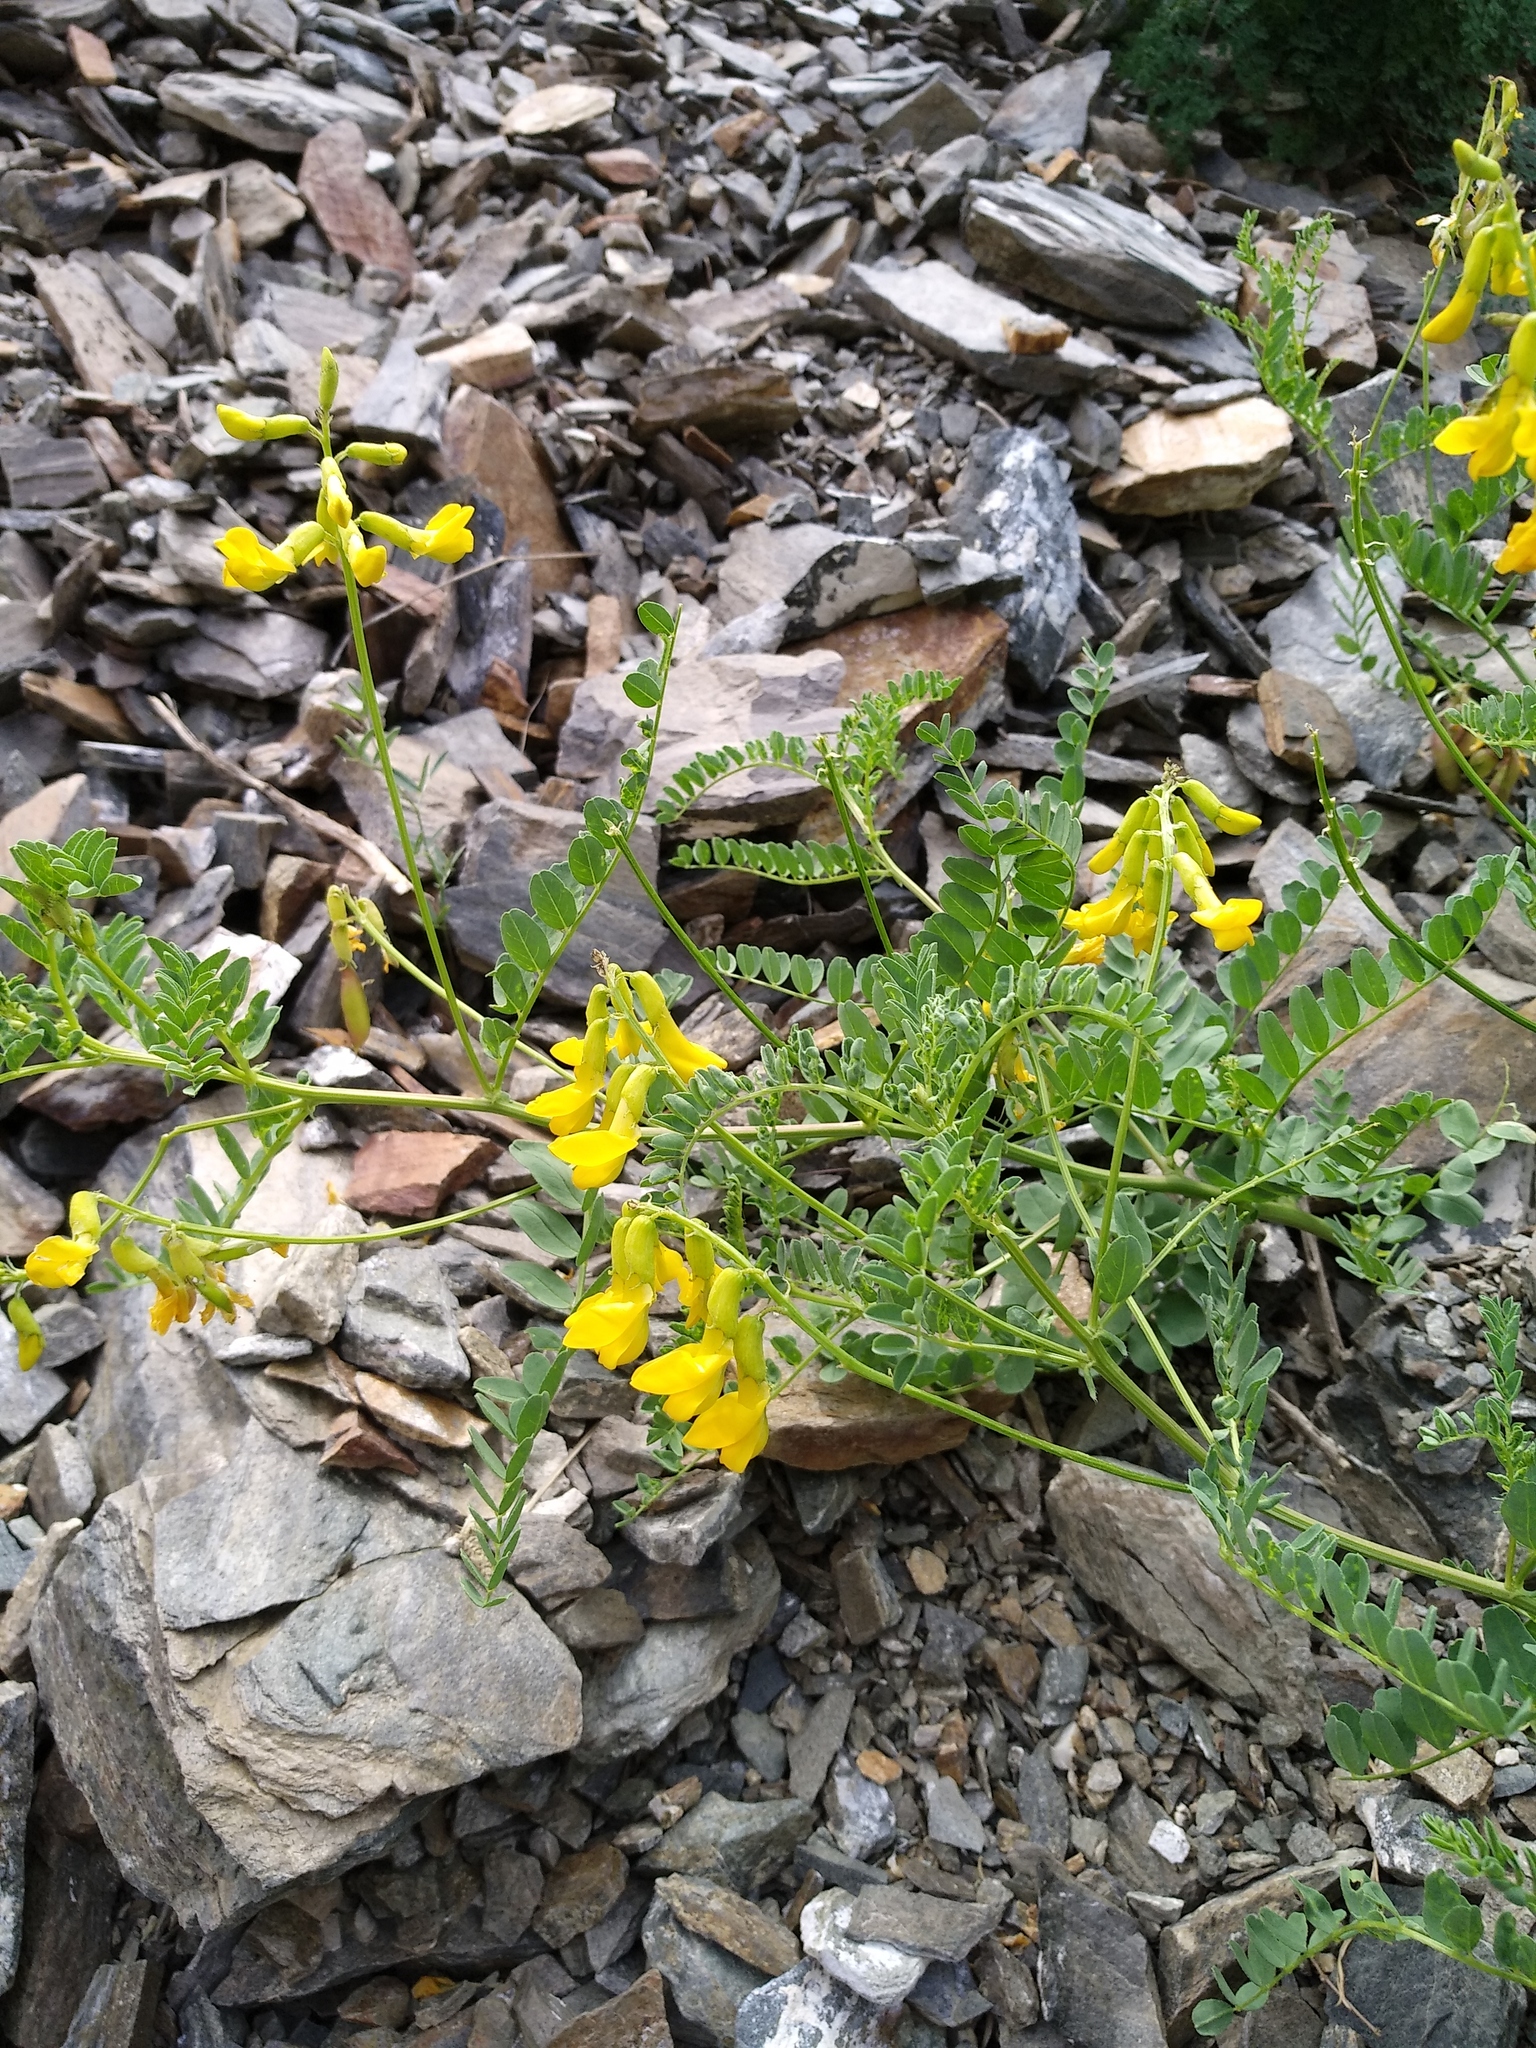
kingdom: Plantae
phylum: Tracheophyta
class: Magnoliopsida
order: Fabales
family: Fabaceae
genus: Astragalus
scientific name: Astragalus mongholicus
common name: Membranous milk-vetch
